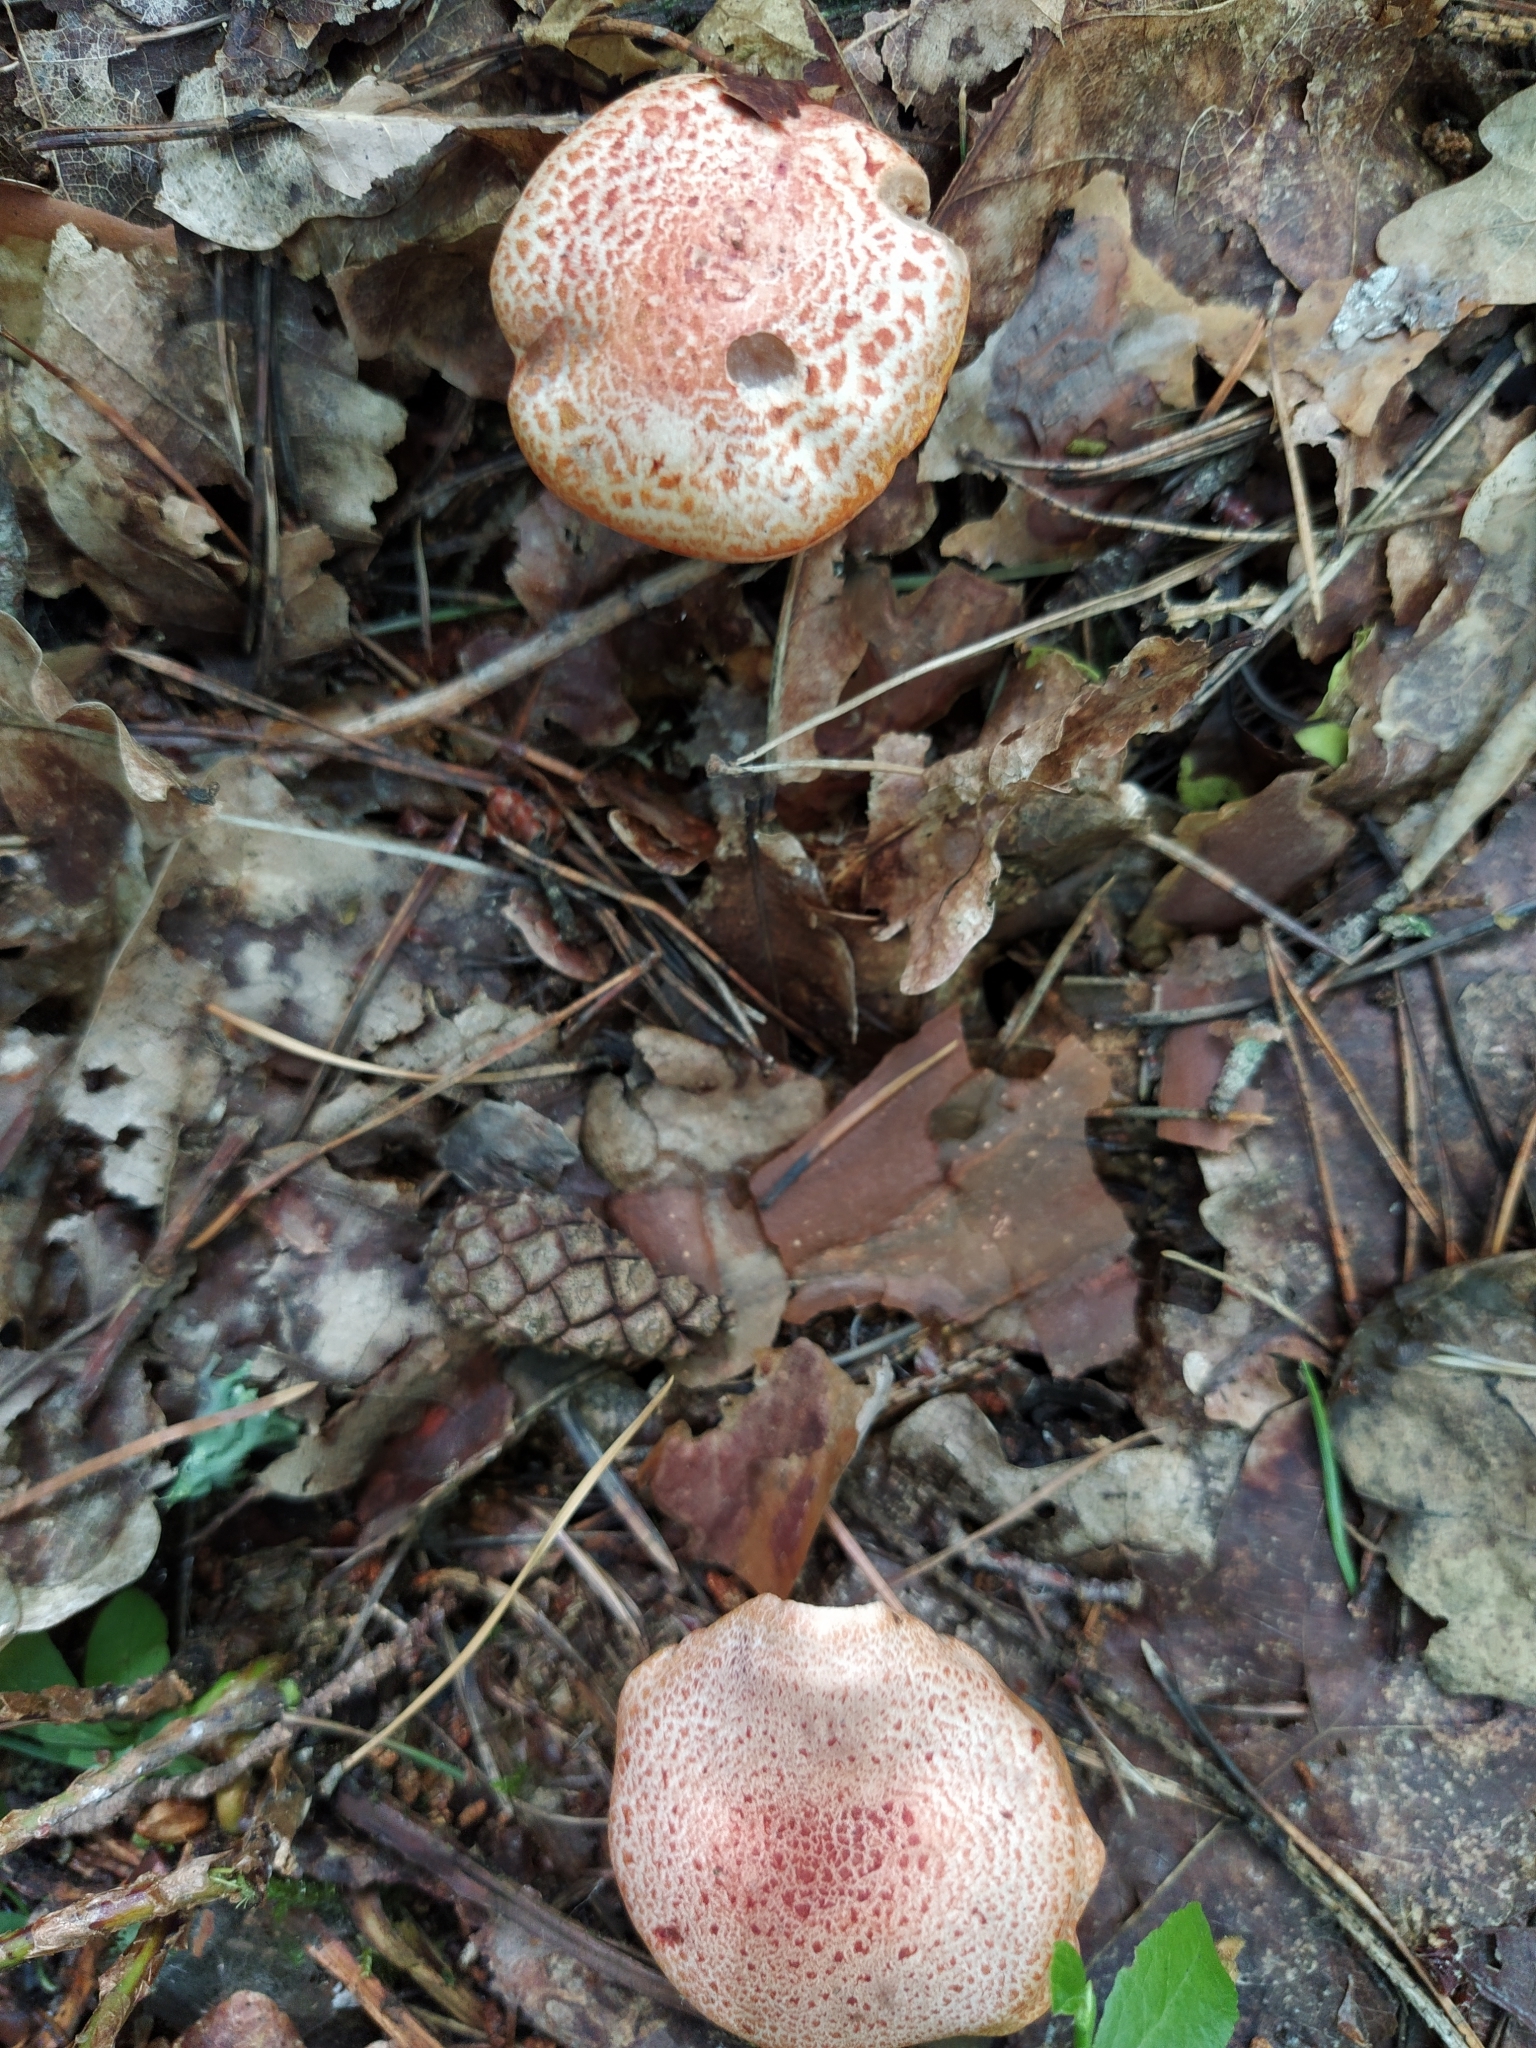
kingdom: Fungi
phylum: Basidiomycota
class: Agaricomycetes
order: Agaricales
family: Cortinariaceae
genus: Cortinarius
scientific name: Cortinarius bolaris
